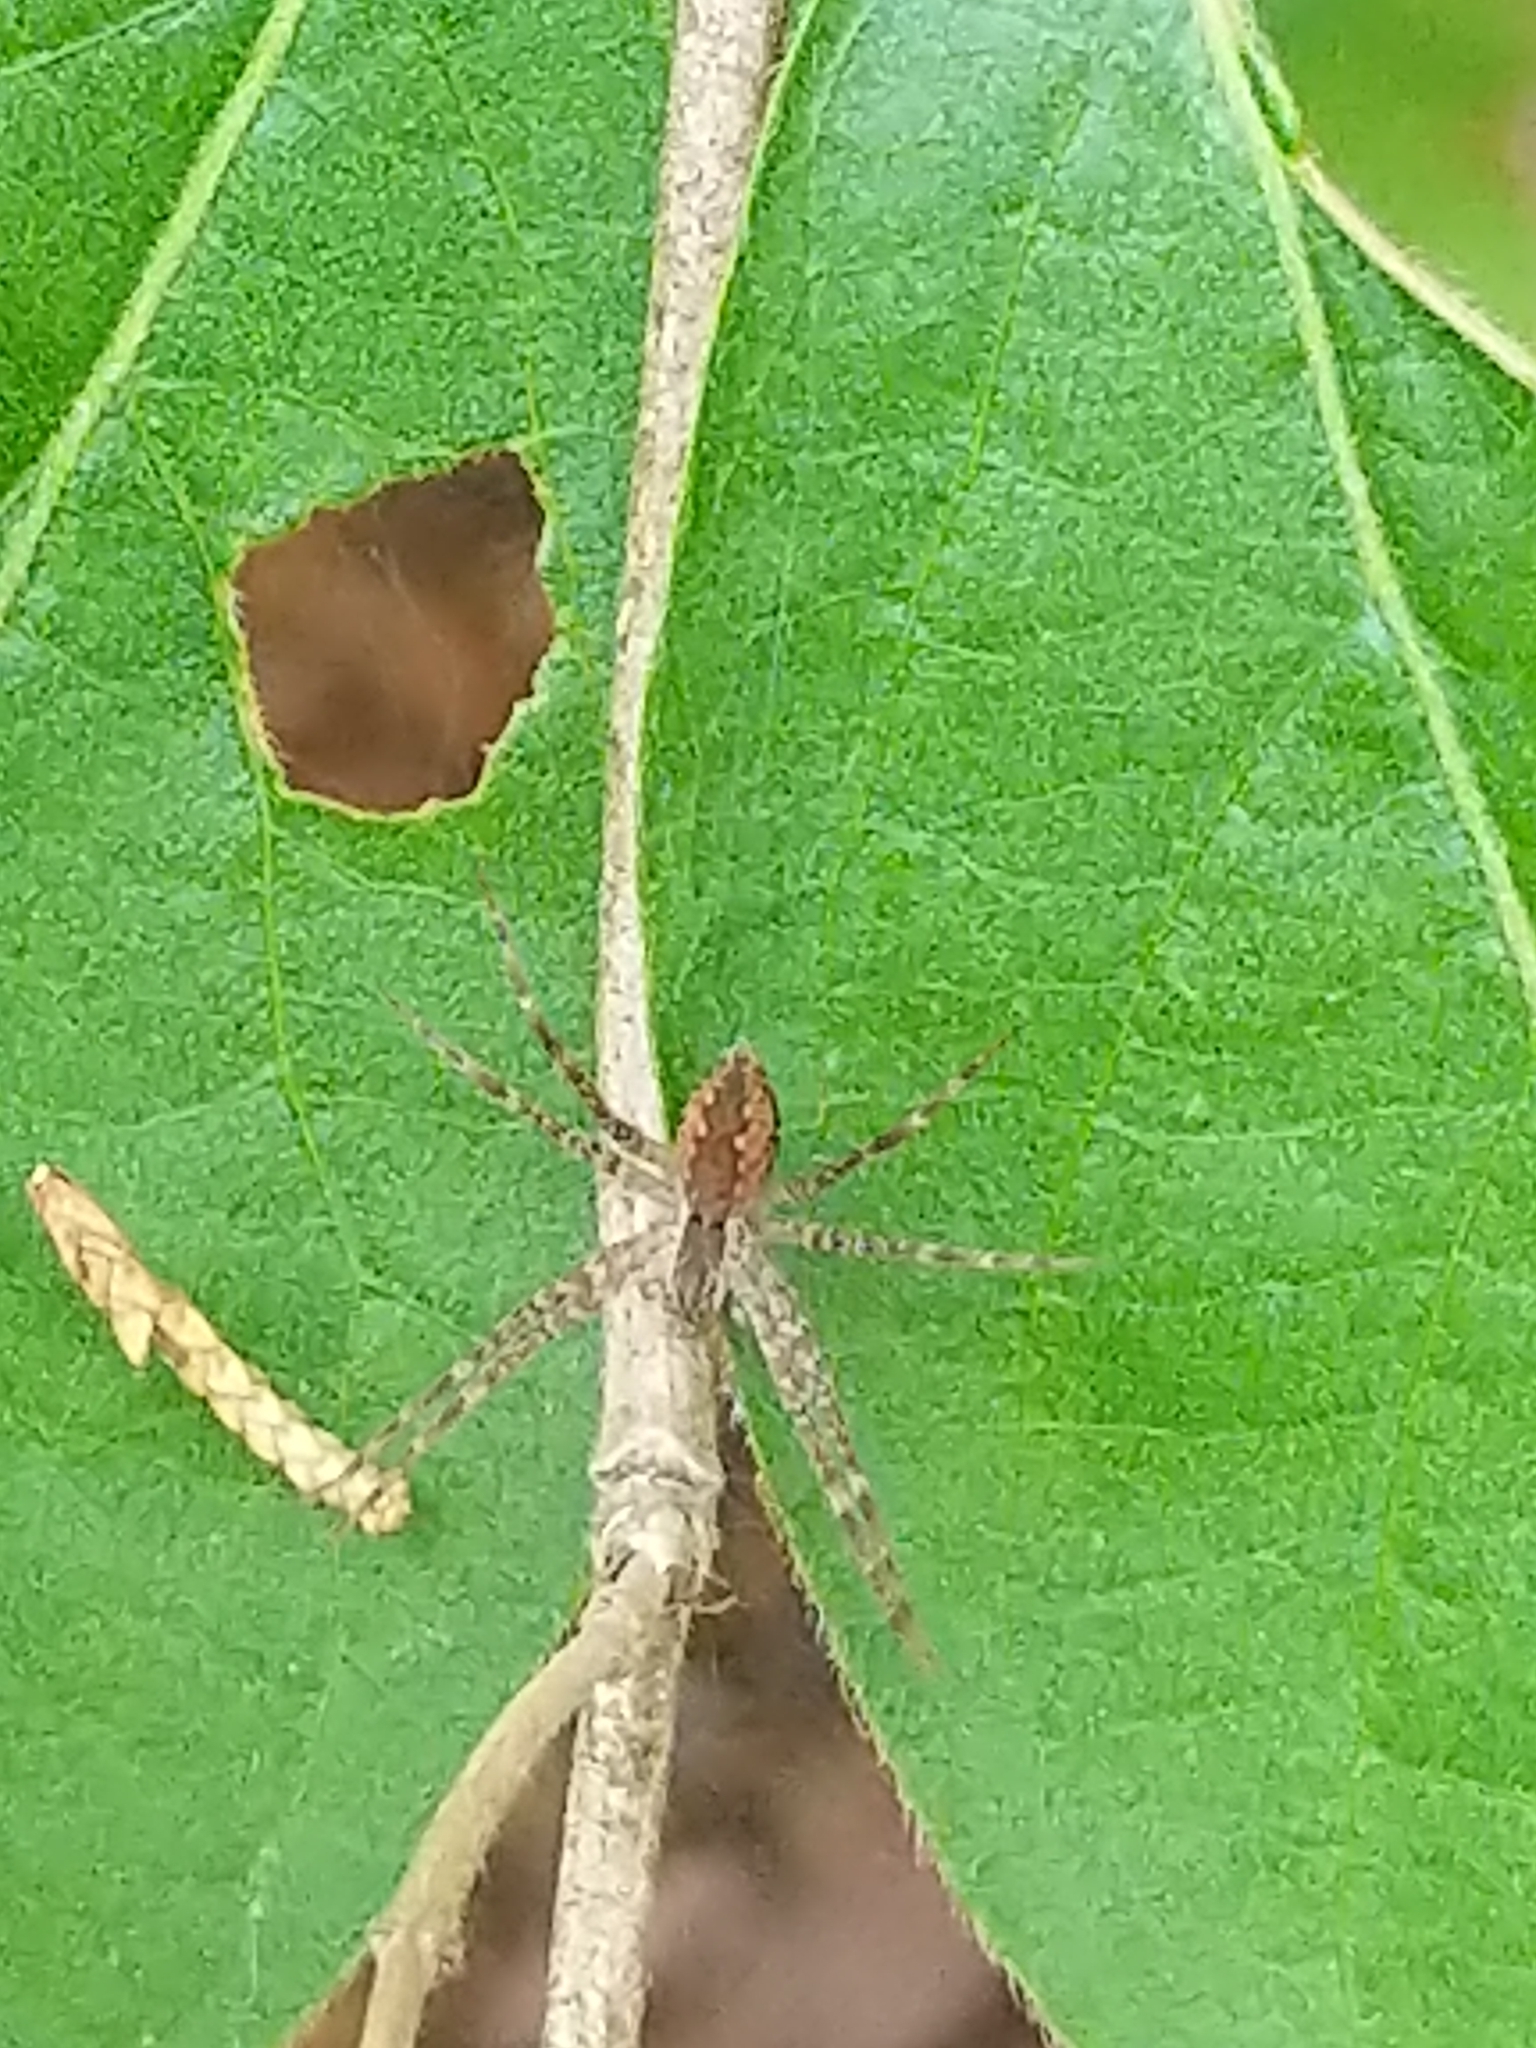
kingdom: Animalia
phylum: Arthropoda
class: Arachnida
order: Araneae
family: Pisauridae
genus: Pisaurina
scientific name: Pisaurina mira
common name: American nursery web spider
